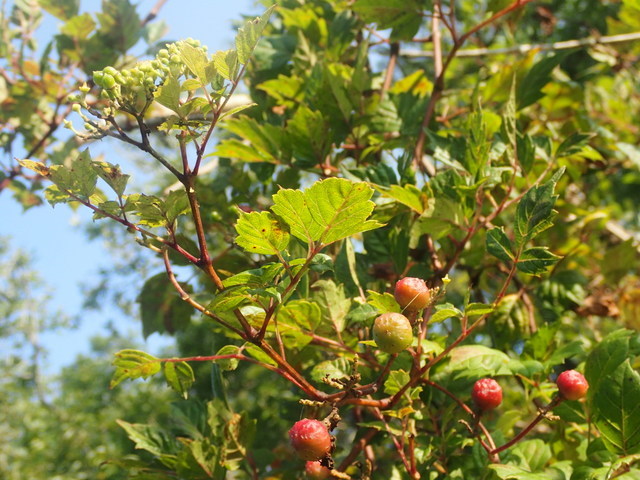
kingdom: Plantae
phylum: Tracheophyta
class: Magnoliopsida
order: Vitales
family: Vitaceae
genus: Nekemias
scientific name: Nekemias arborea
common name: Peppervine
